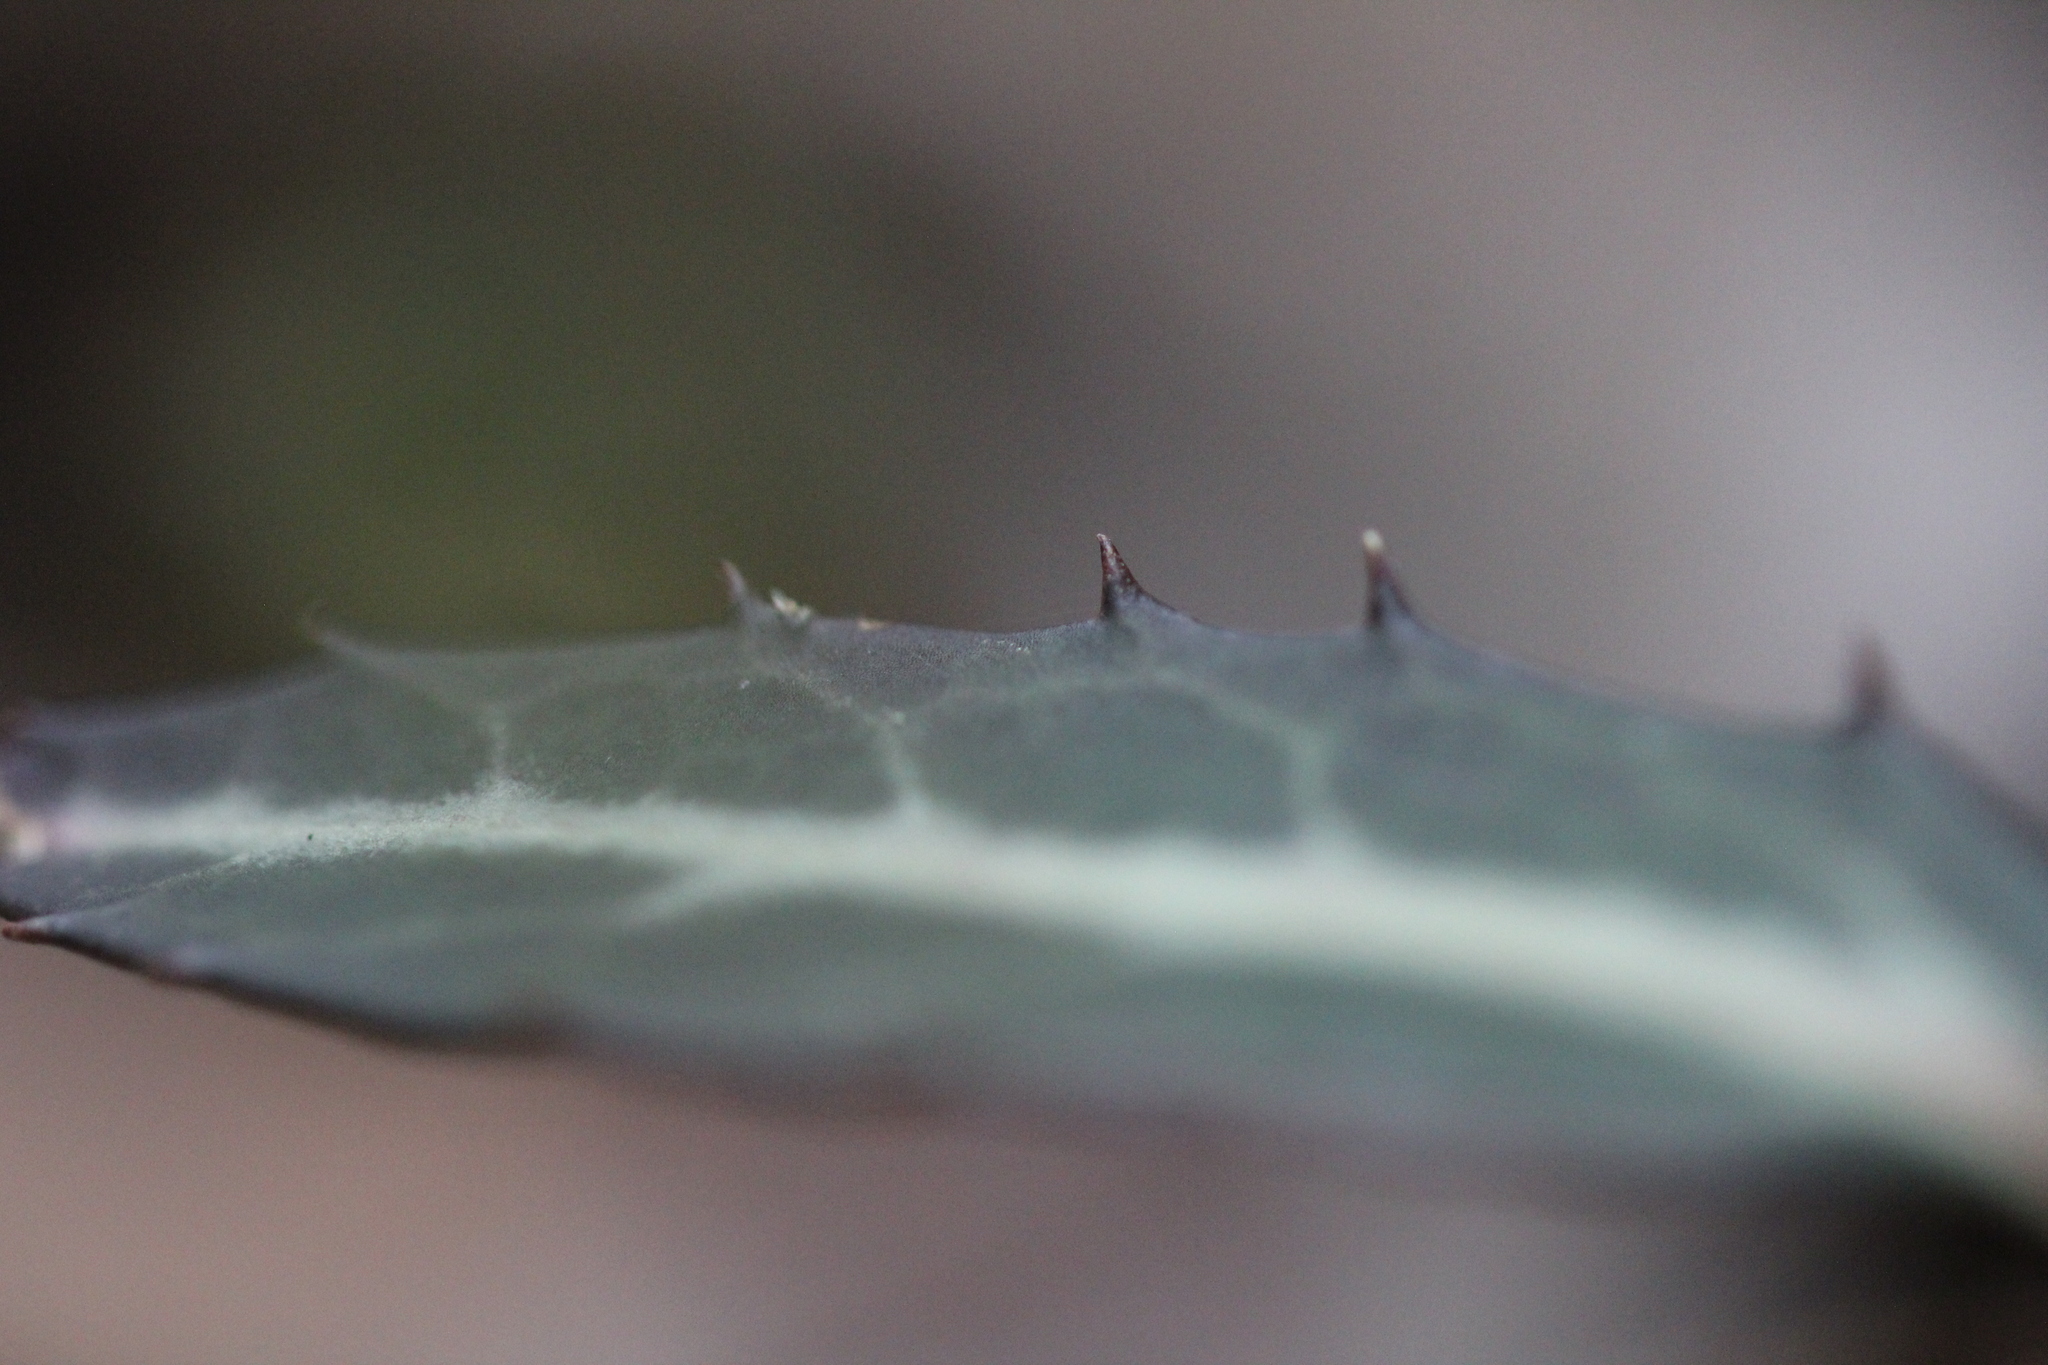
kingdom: Plantae
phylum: Tracheophyta
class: Magnoliopsida
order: Ericales
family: Ericaceae
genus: Chimaphila
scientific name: Chimaphila maculata
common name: Spotted pipsissewa
